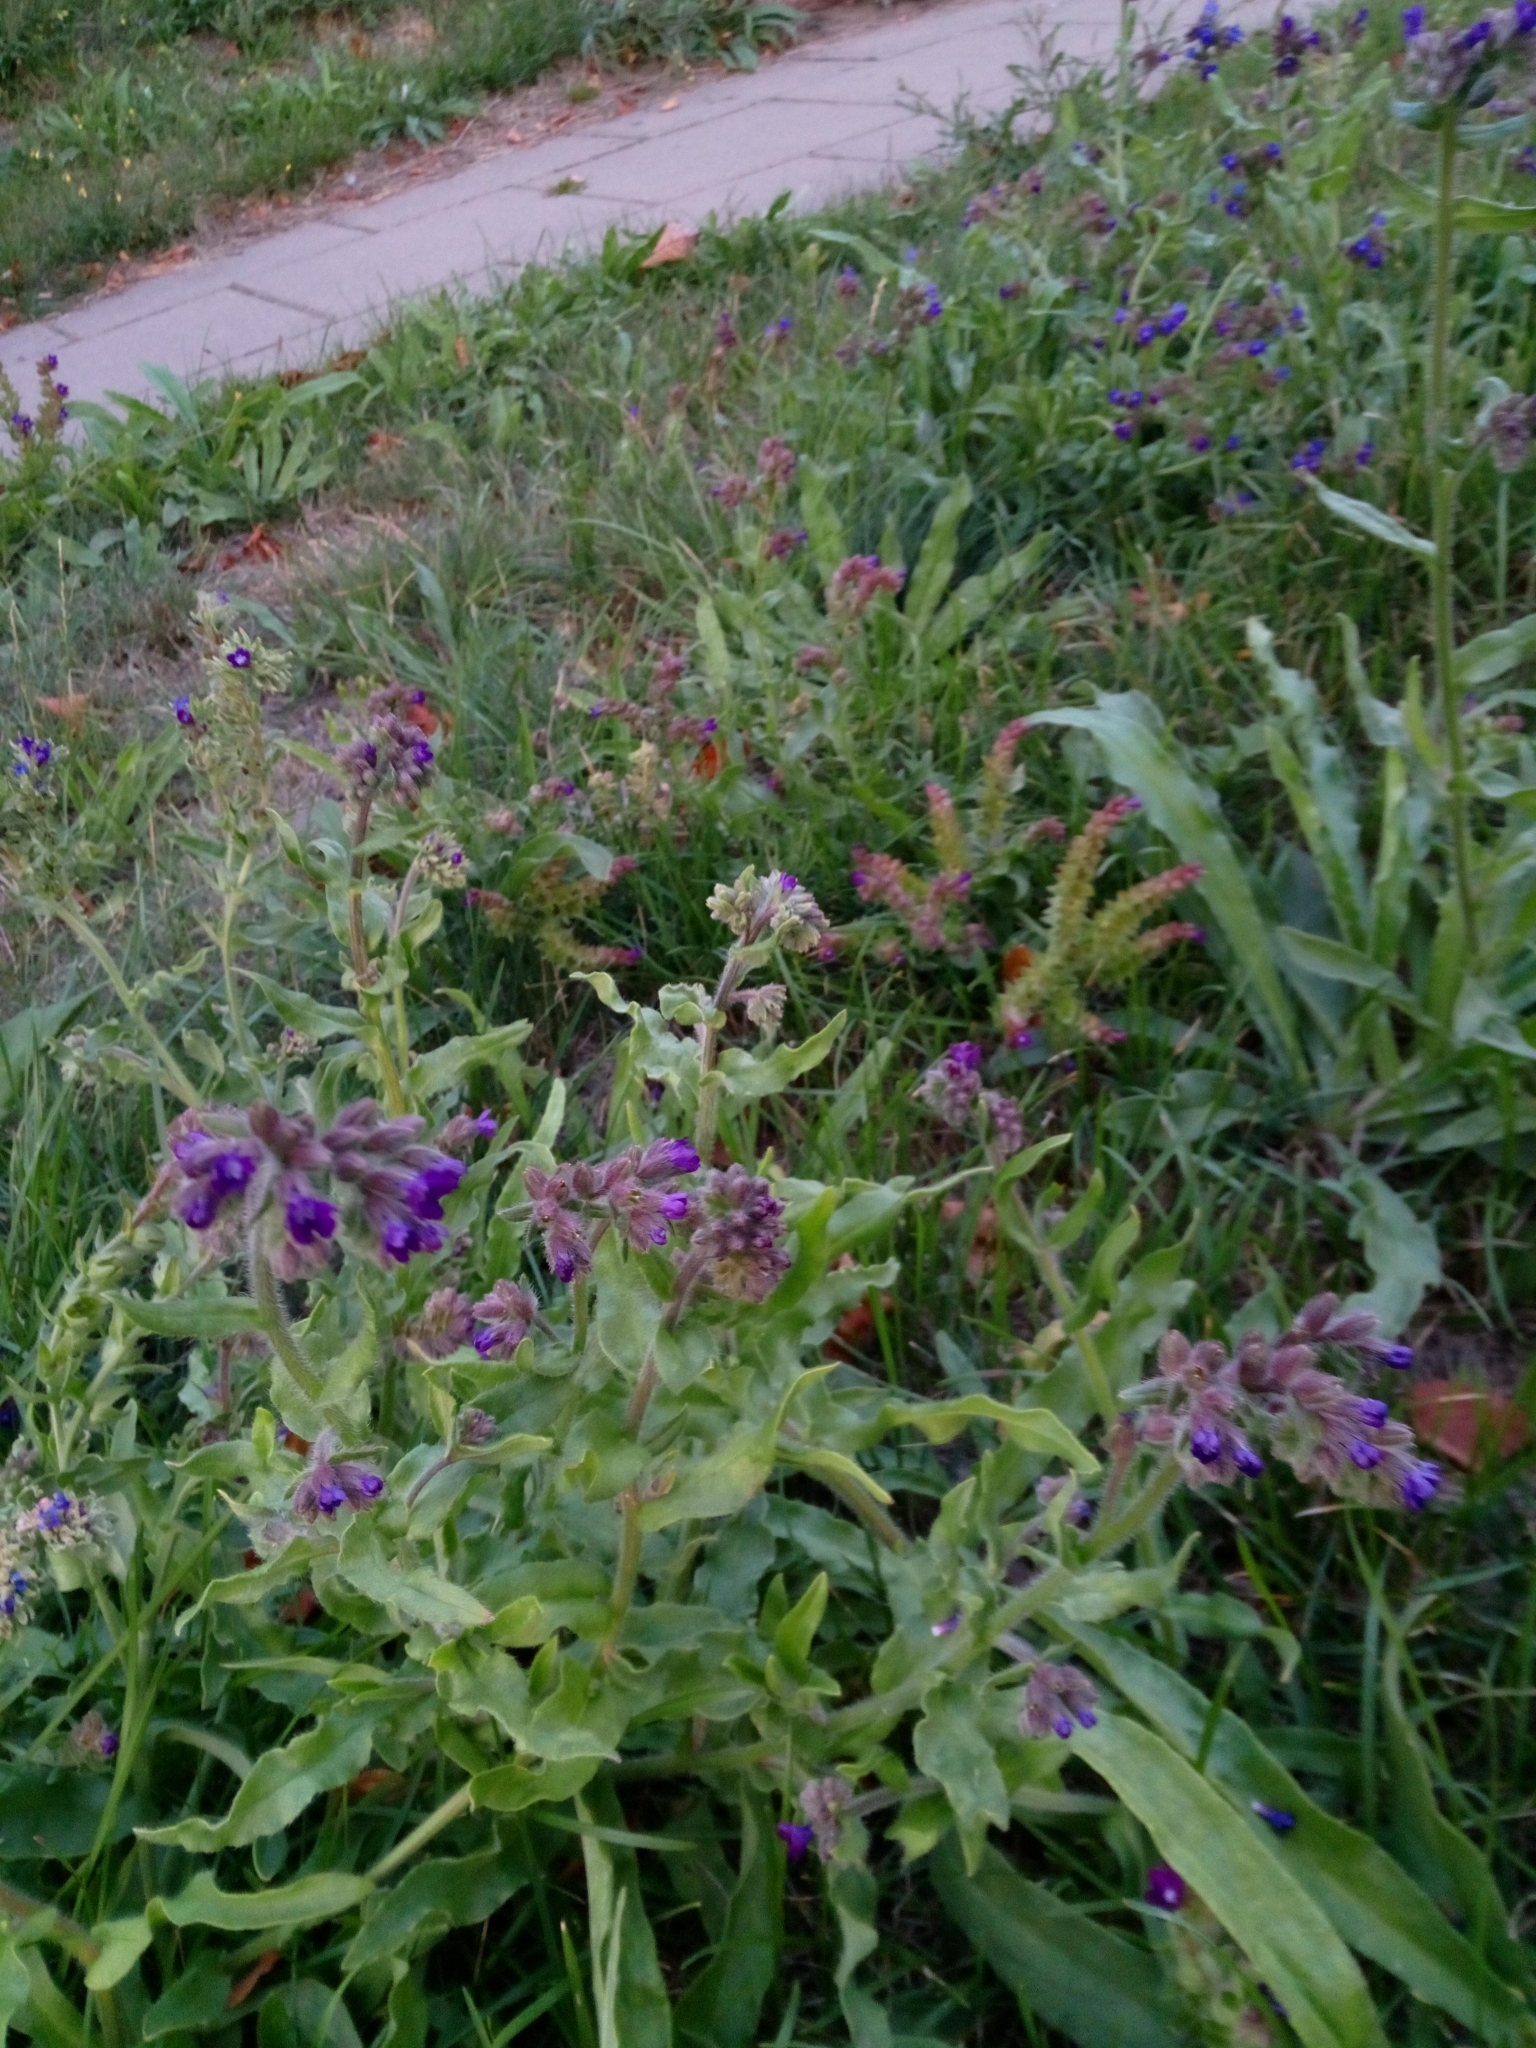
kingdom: Plantae
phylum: Tracheophyta
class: Magnoliopsida
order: Boraginales
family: Boraginaceae
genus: Anchusa
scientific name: Anchusa officinalis
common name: Alkanet
